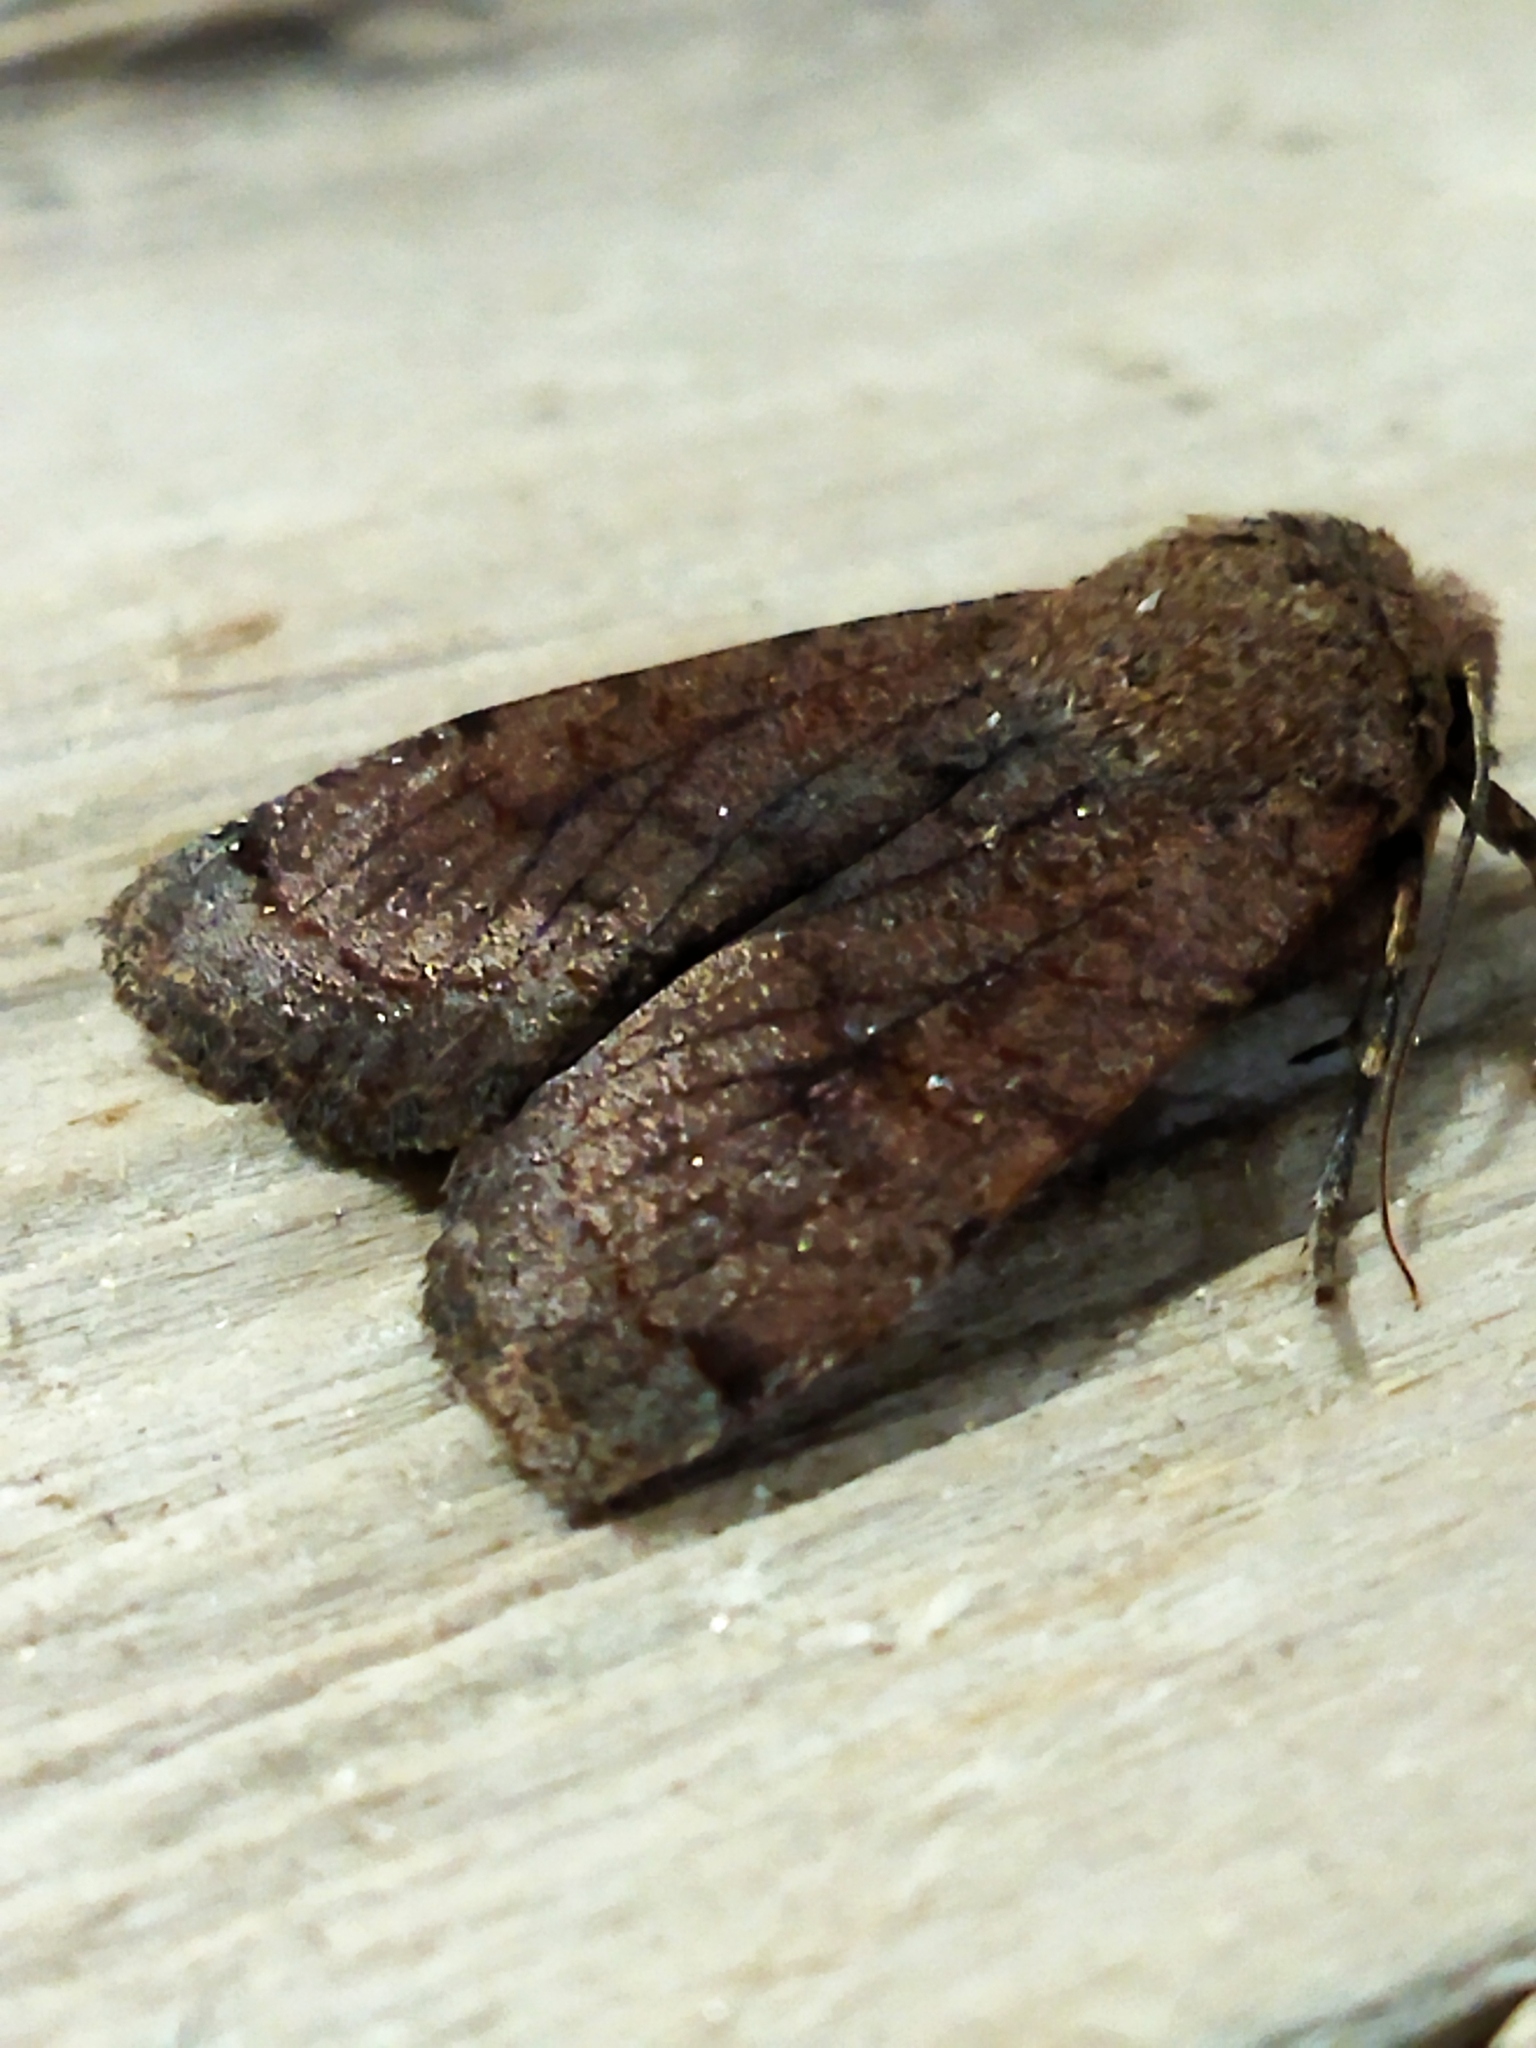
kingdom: Animalia
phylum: Arthropoda
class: Insecta
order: Lepidoptera
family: Noctuidae
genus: Conistra
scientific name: Conistra veronicae
